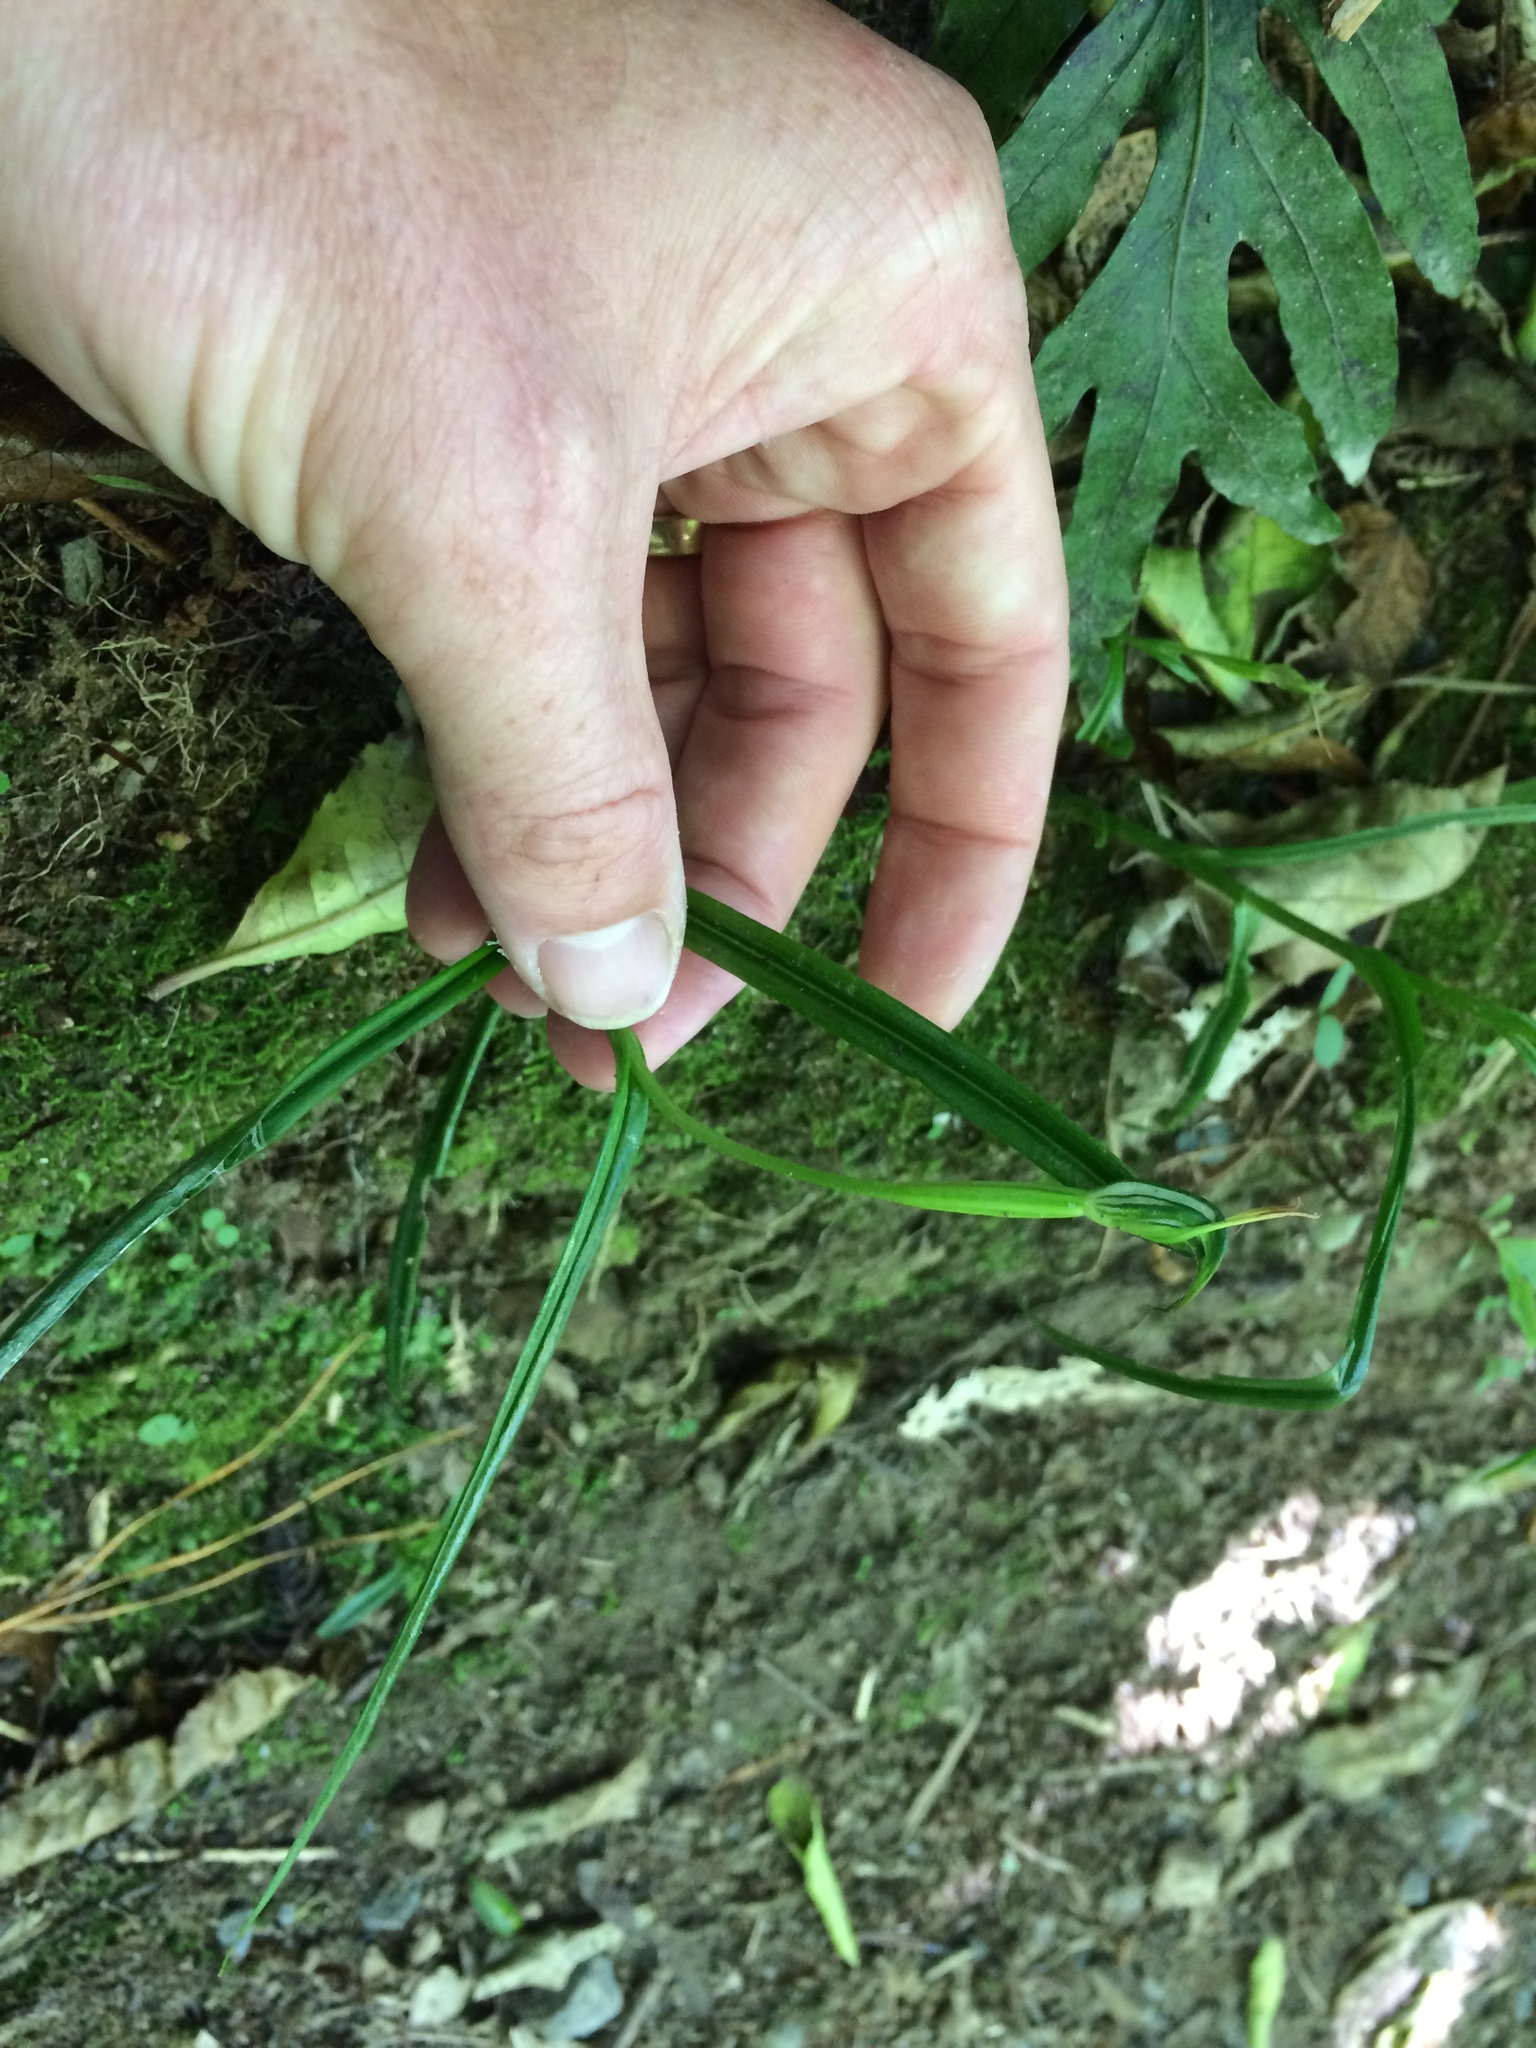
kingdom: Plantae
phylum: Tracheophyta
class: Liliopsida
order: Asparagales
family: Orchidaceae
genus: Pterostylis
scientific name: Pterostylis graminea
